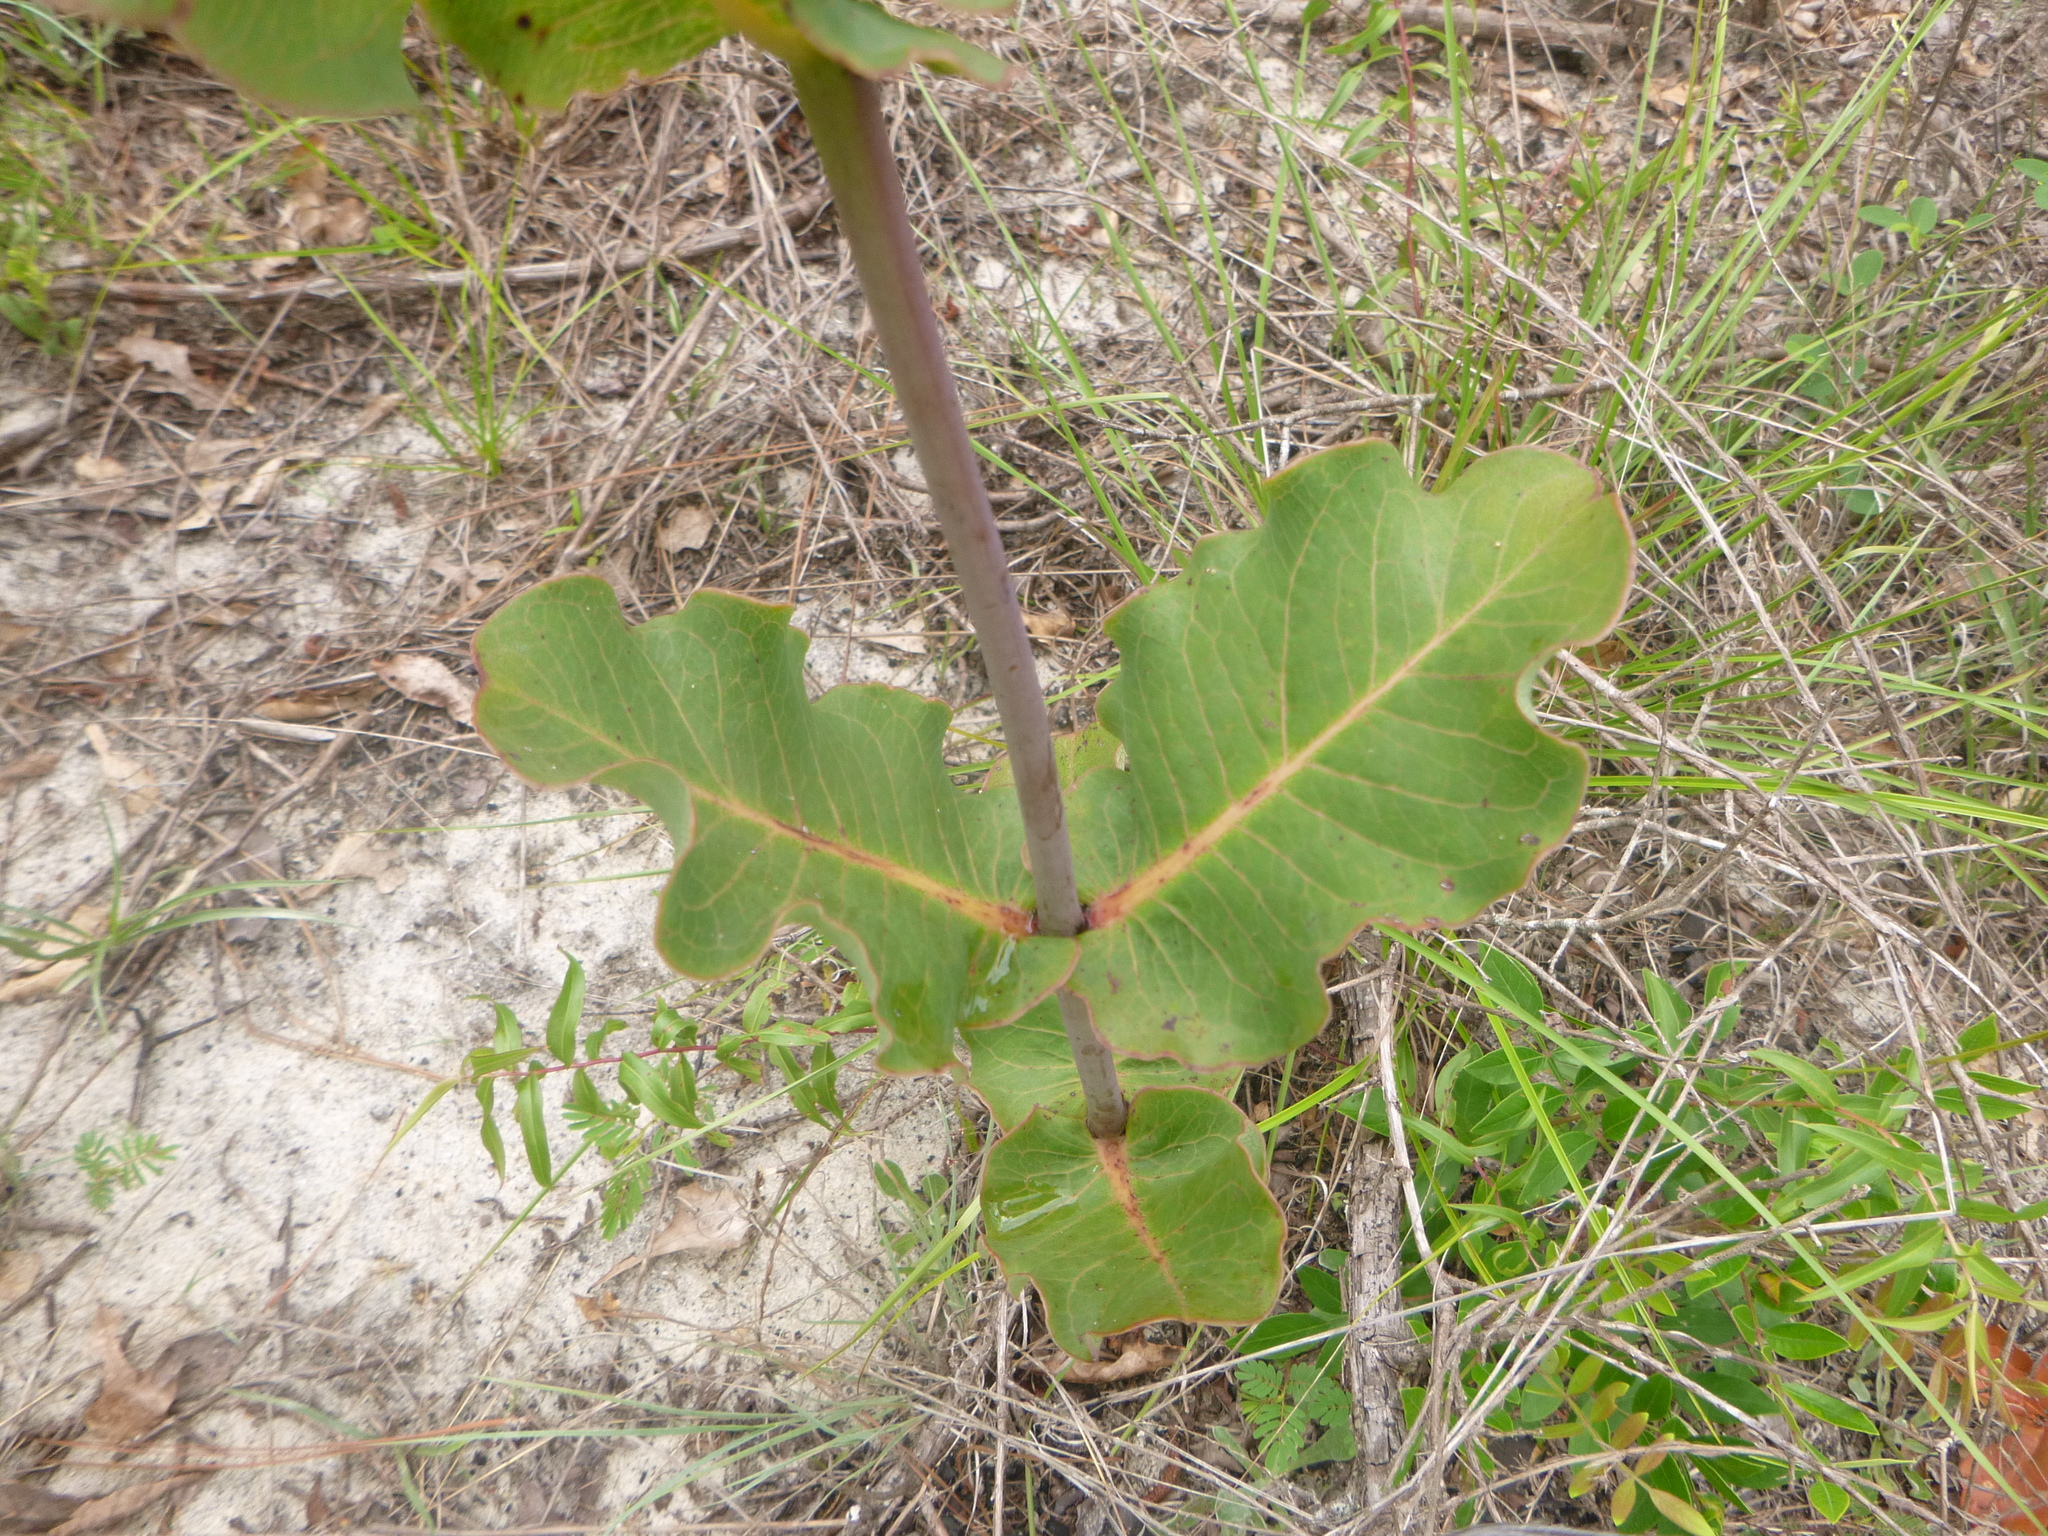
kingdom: Plantae
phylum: Tracheophyta
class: Magnoliopsida
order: Gentianales
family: Apocynaceae
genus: Asclepias
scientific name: Asclepias amplexicaulis
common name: Blunt-leaf milkweed
